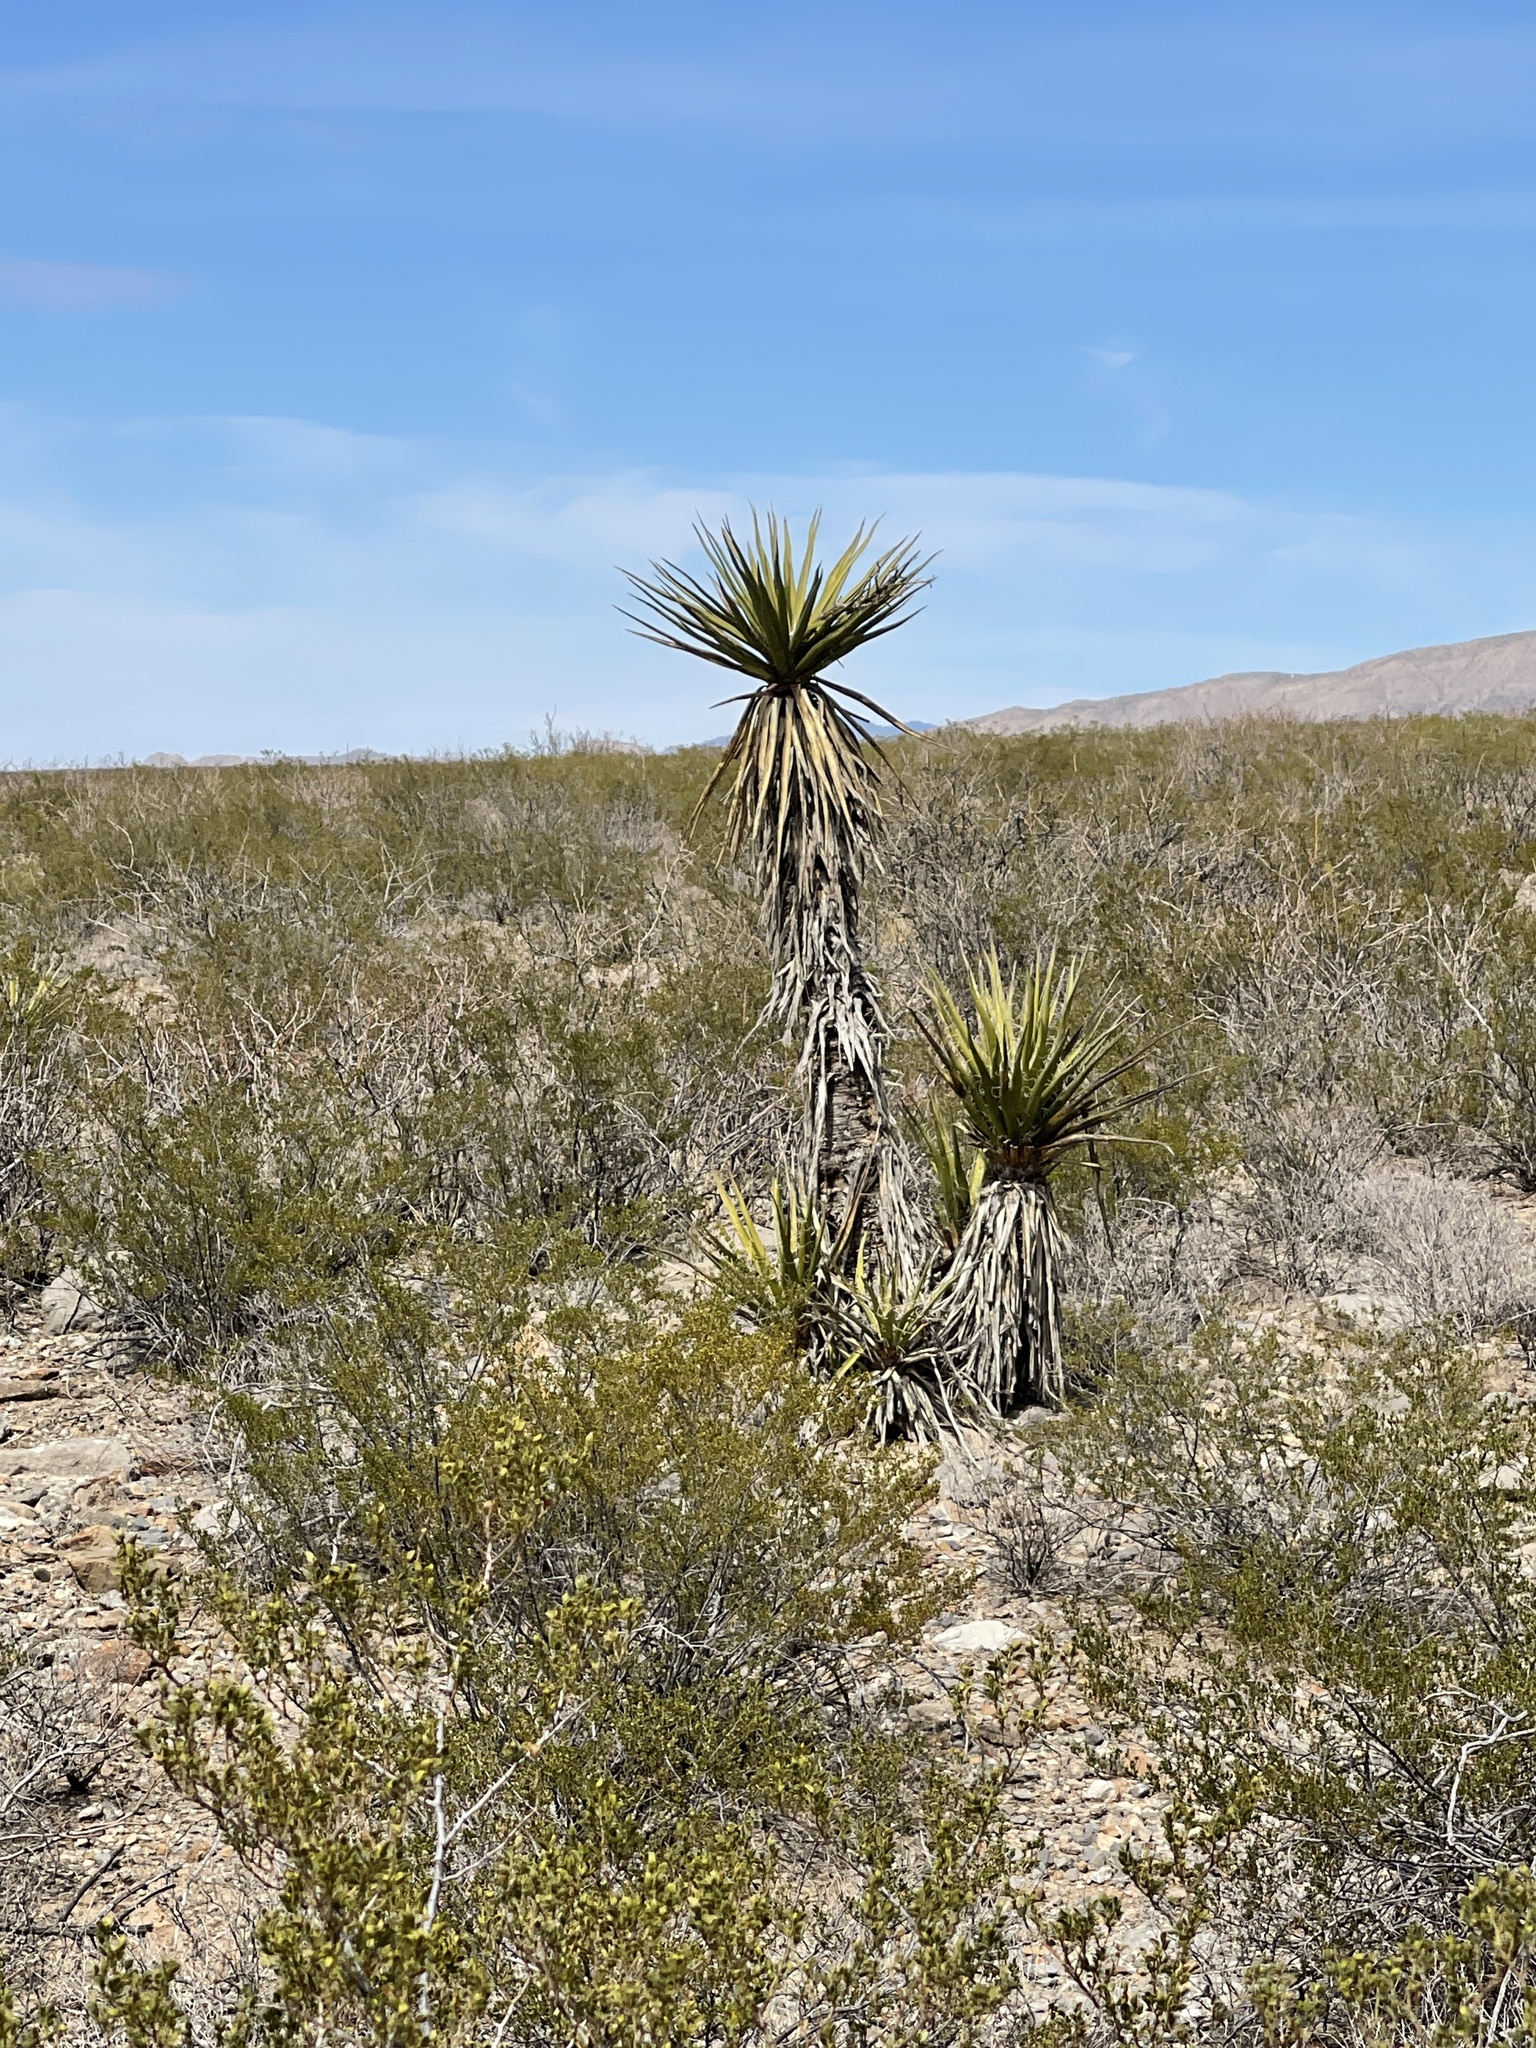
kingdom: Plantae
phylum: Tracheophyta
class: Liliopsida
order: Asparagales
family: Asparagaceae
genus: Yucca
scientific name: Yucca treculiana
